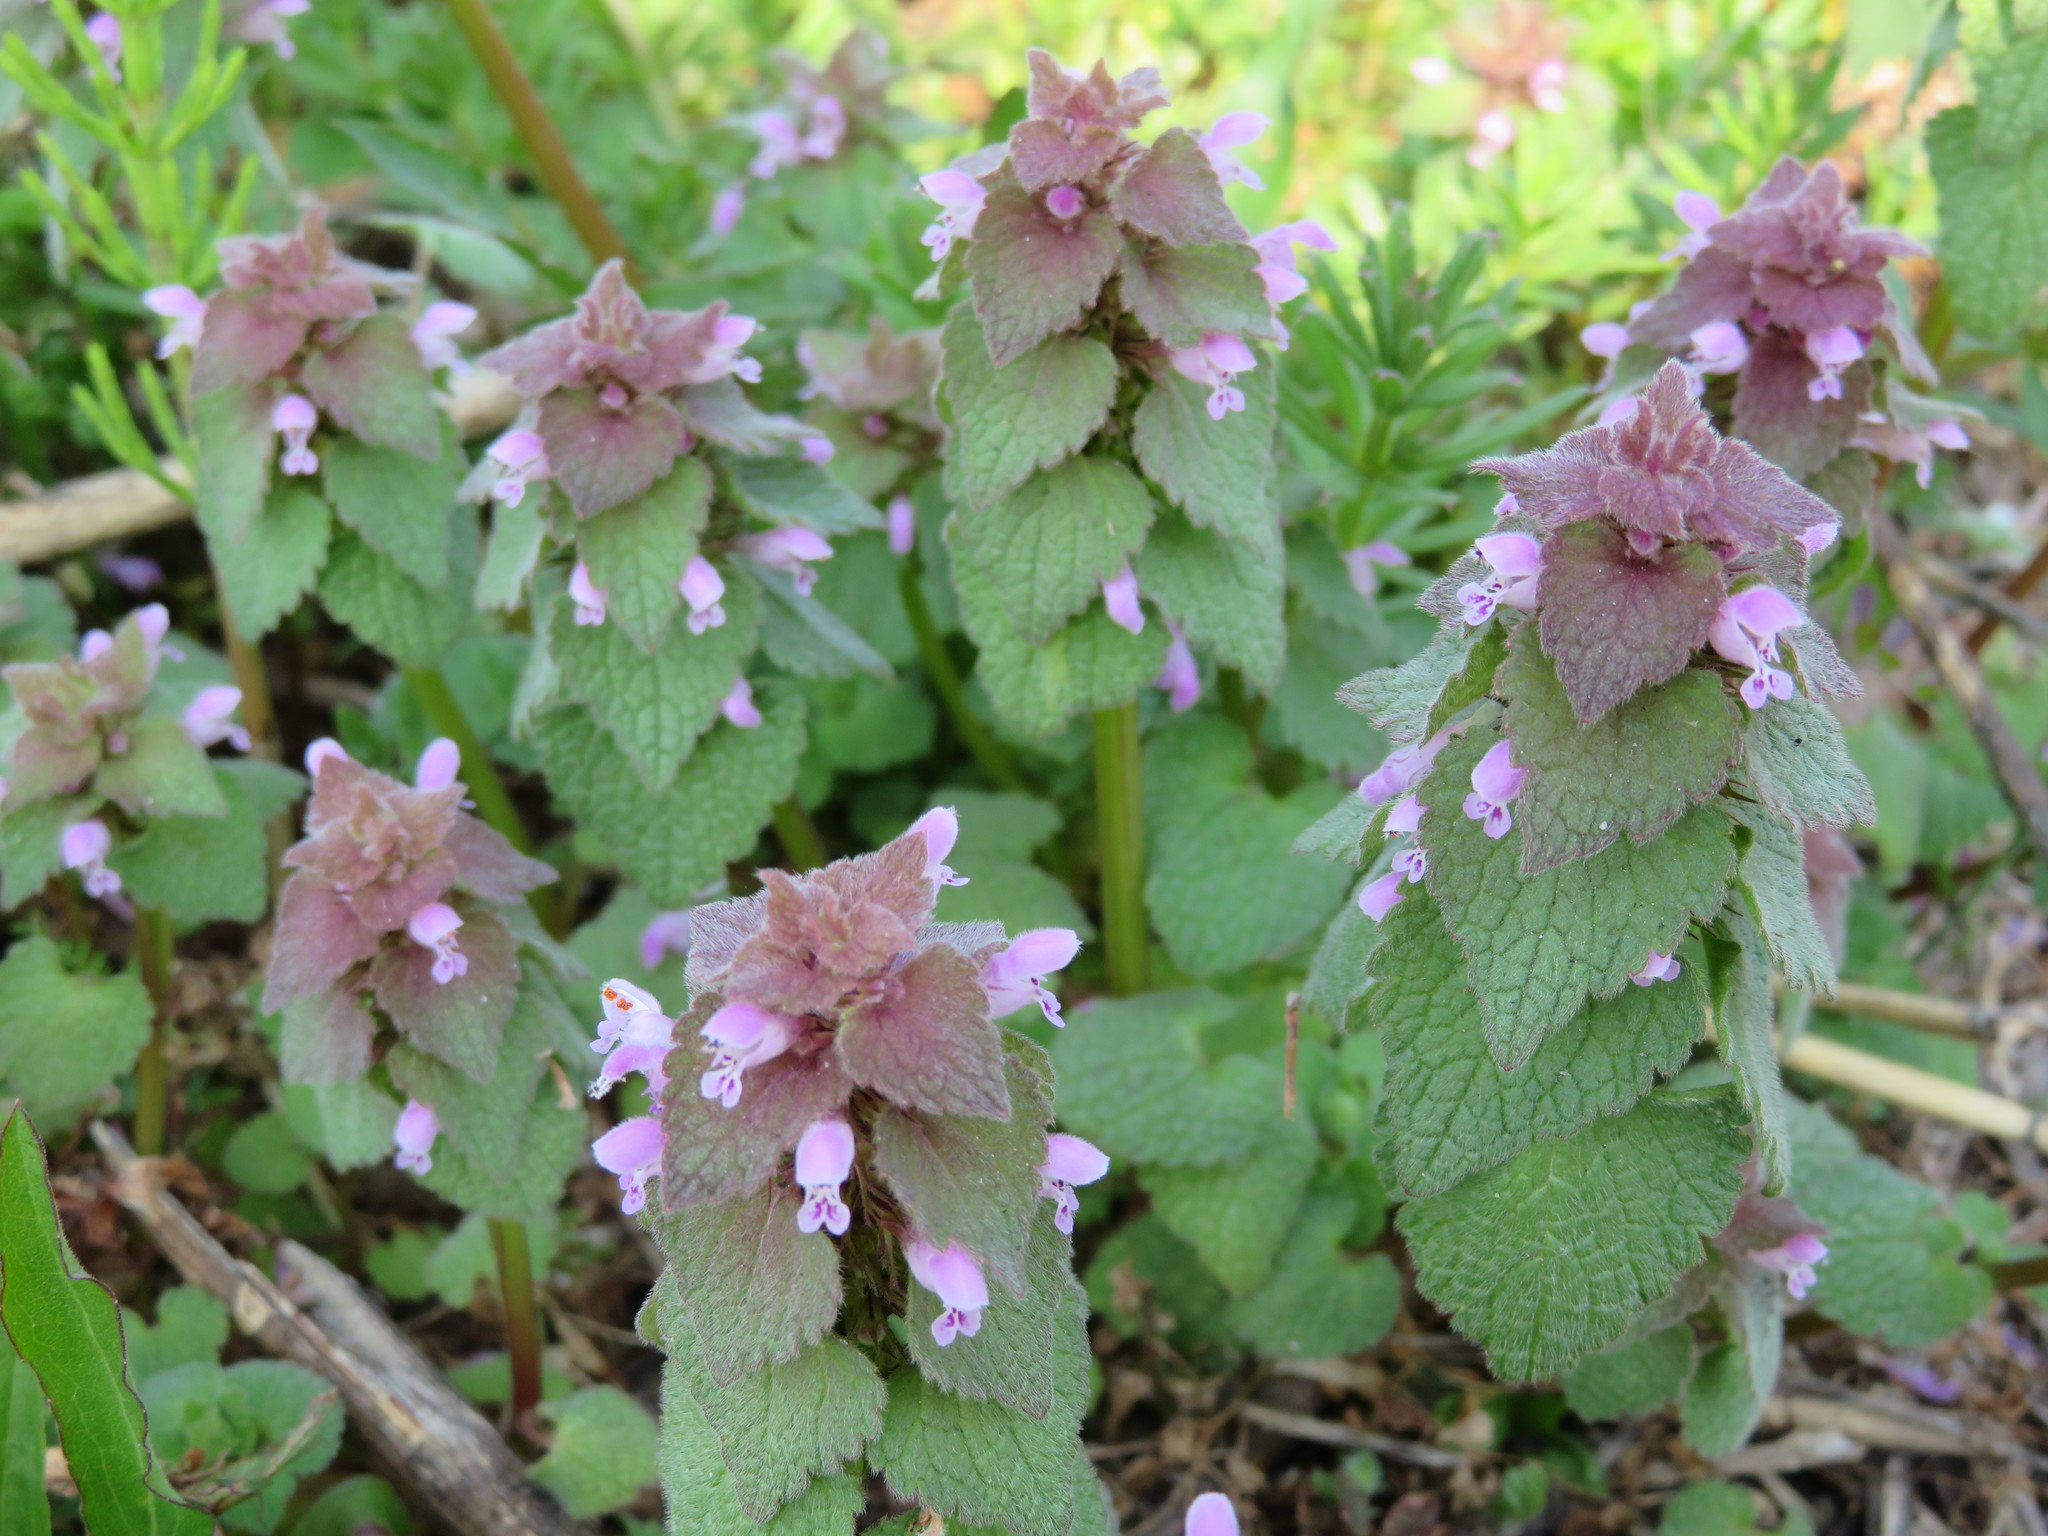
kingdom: Plantae
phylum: Tracheophyta
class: Magnoliopsida
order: Lamiales
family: Lamiaceae
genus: Lamium
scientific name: Lamium purpureum
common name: Red dead-nettle
